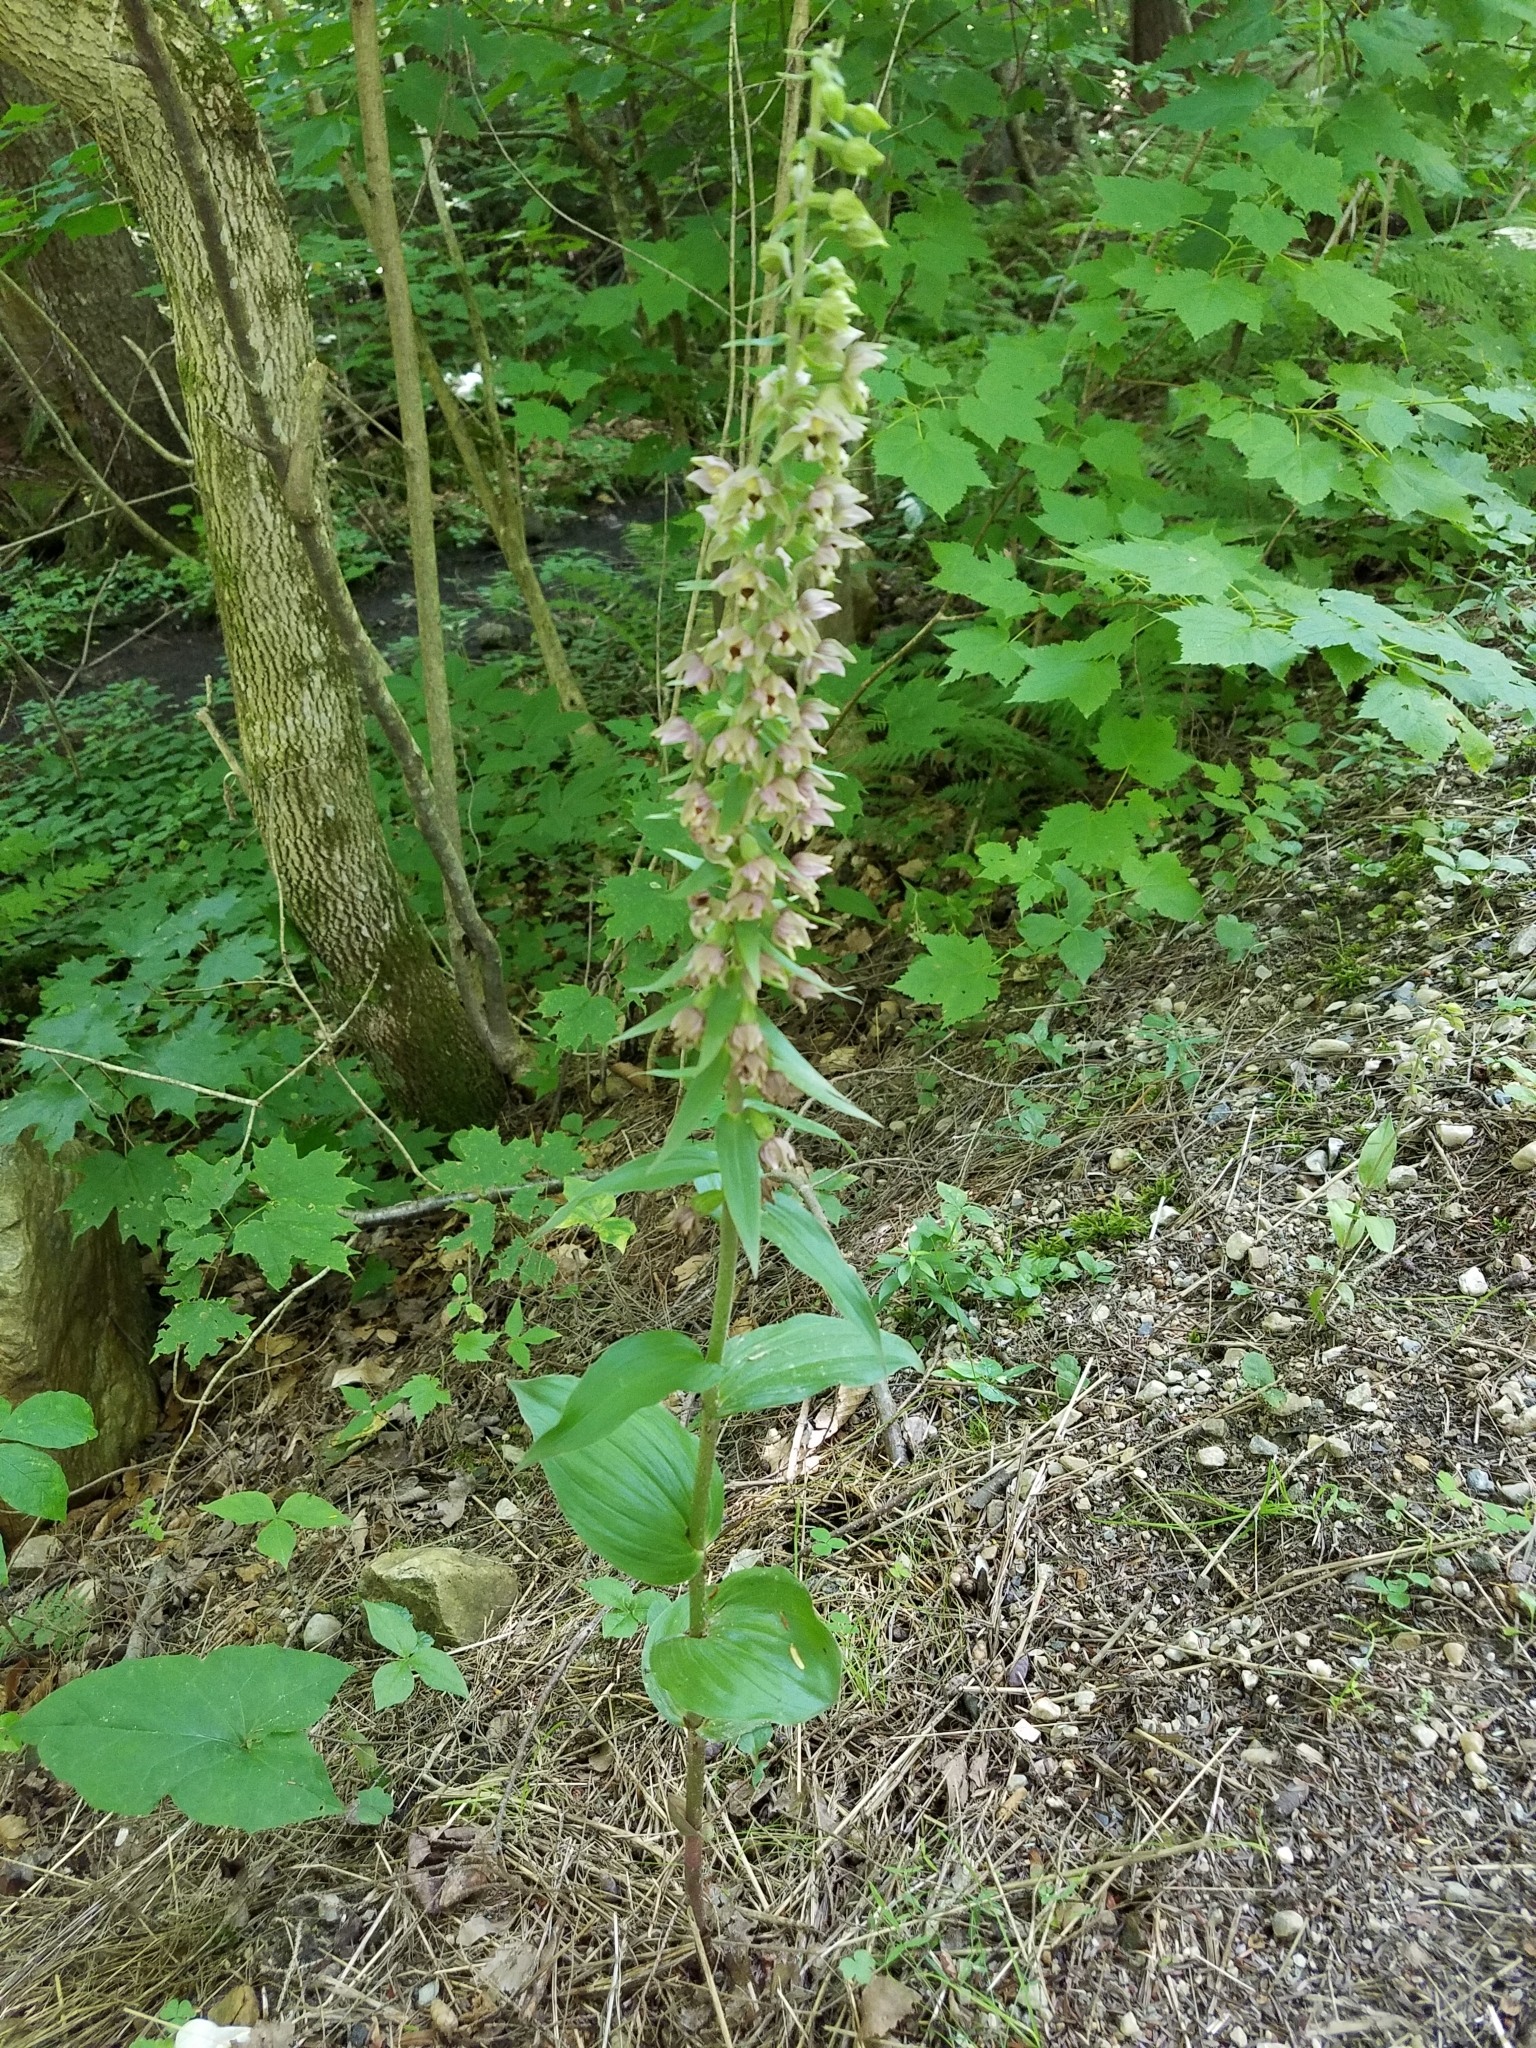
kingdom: Plantae
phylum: Tracheophyta
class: Liliopsida
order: Asparagales
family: Orchidaceae
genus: Epipactis
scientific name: Epipactis helleborine
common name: Broad-leaved helleborine
